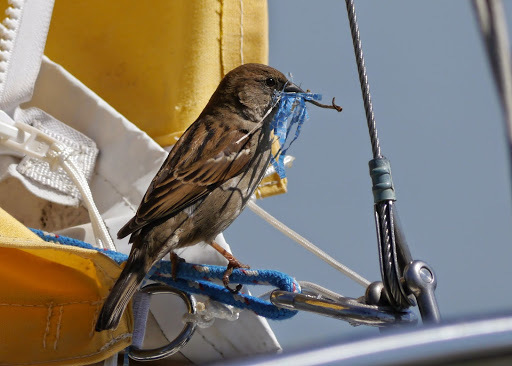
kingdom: Animalia
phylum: Chordata
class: Aves
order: Passeriformes
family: Passeridae
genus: Passer
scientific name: Passer domesticus
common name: House sparrow
